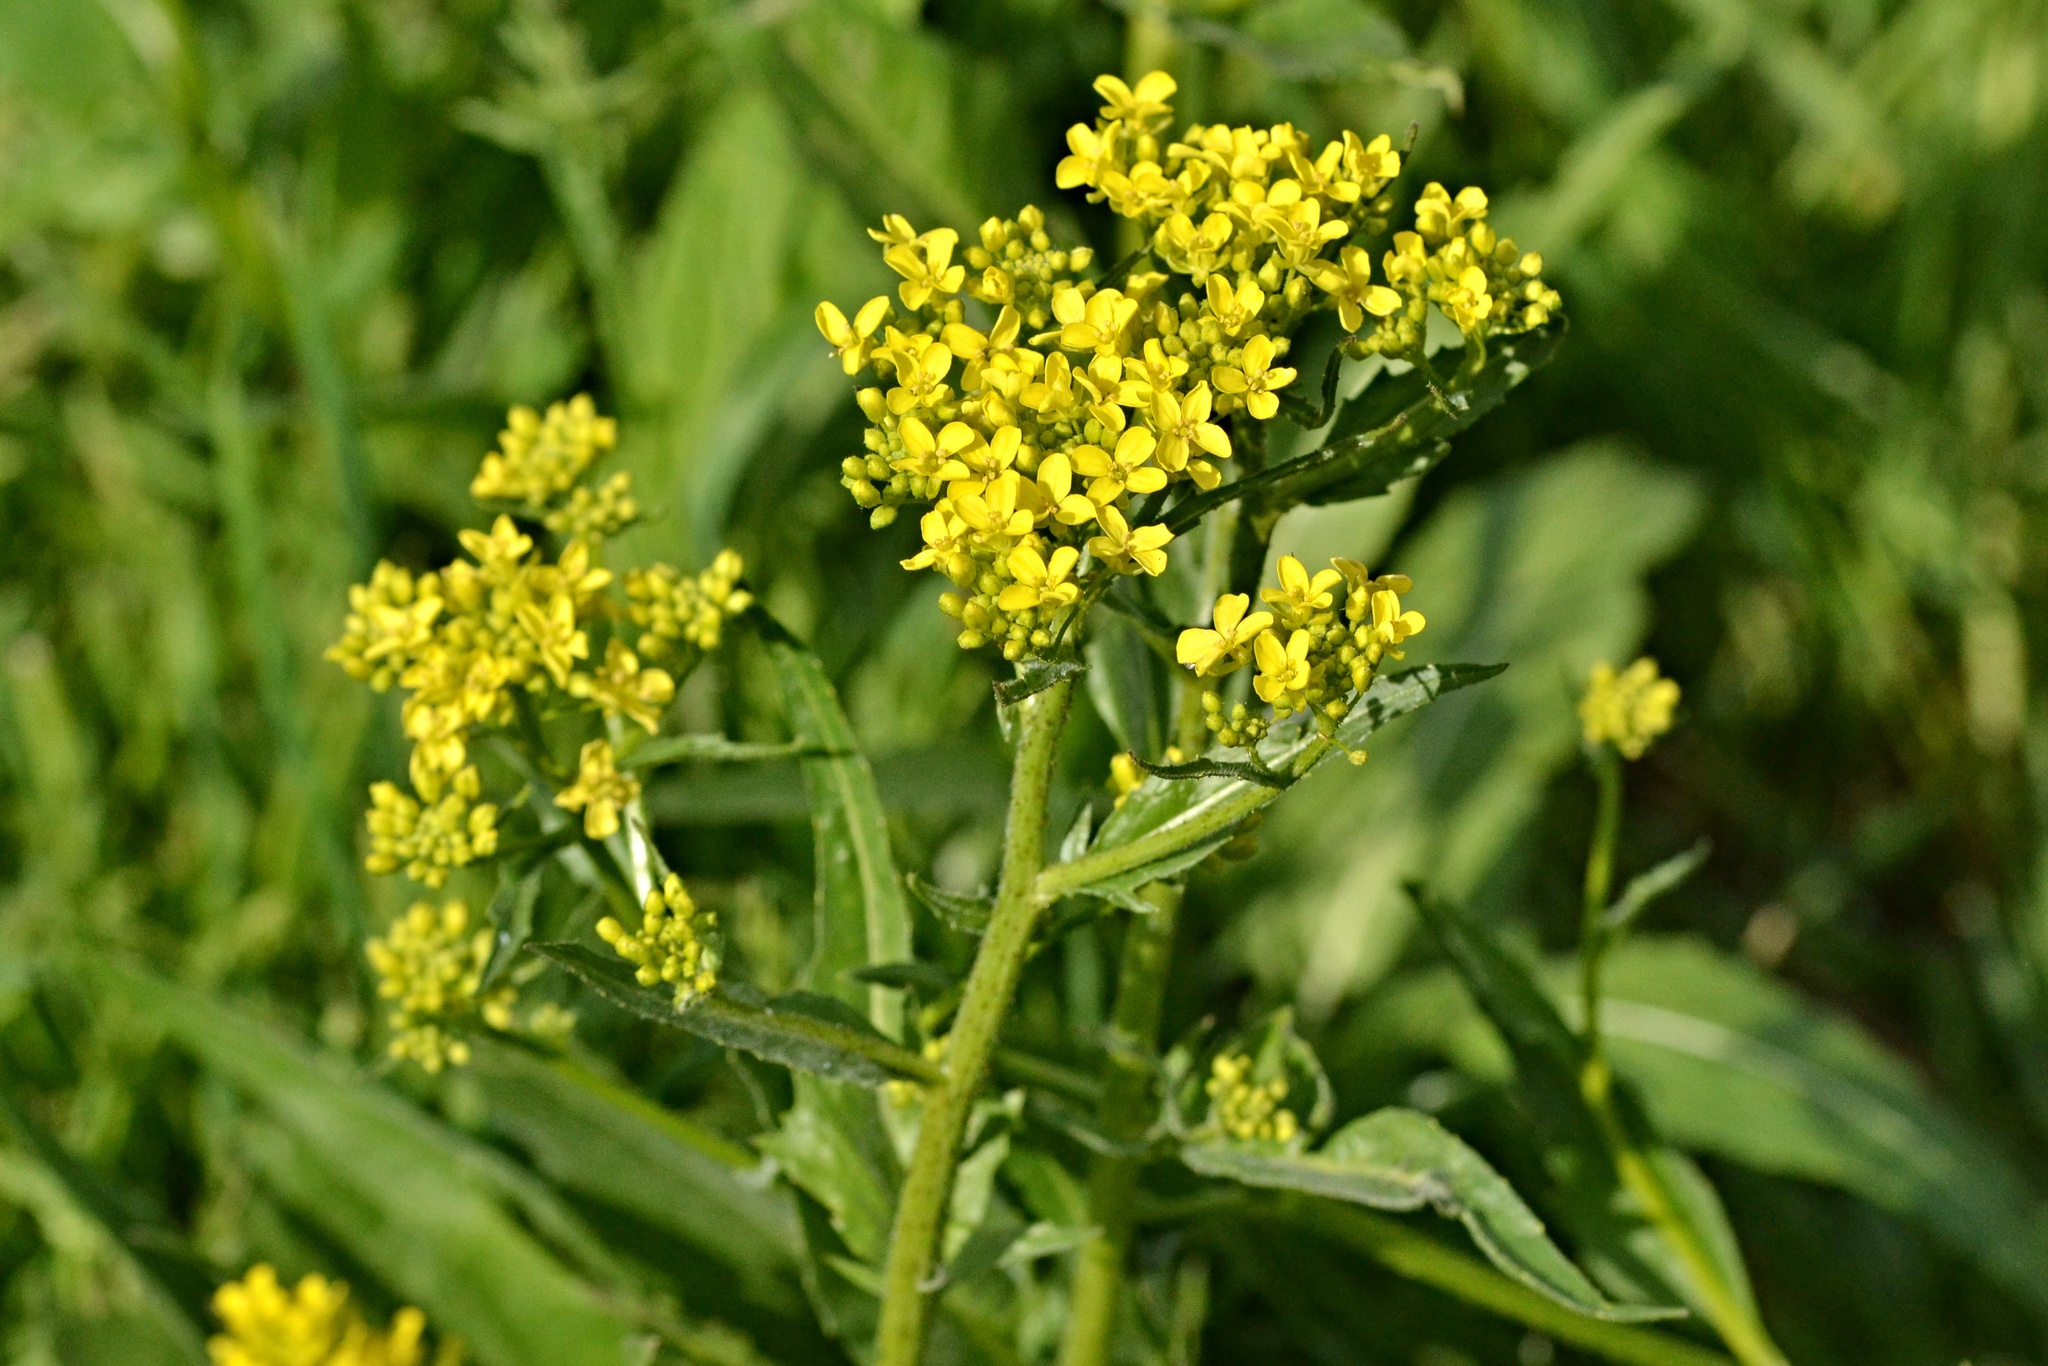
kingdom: Plantae
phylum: Tracheophyta
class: Magnoliopsida
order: Brassicales
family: Brassicaceae
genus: Bunias
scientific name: Bunias orientalis
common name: Warty-cabbage
